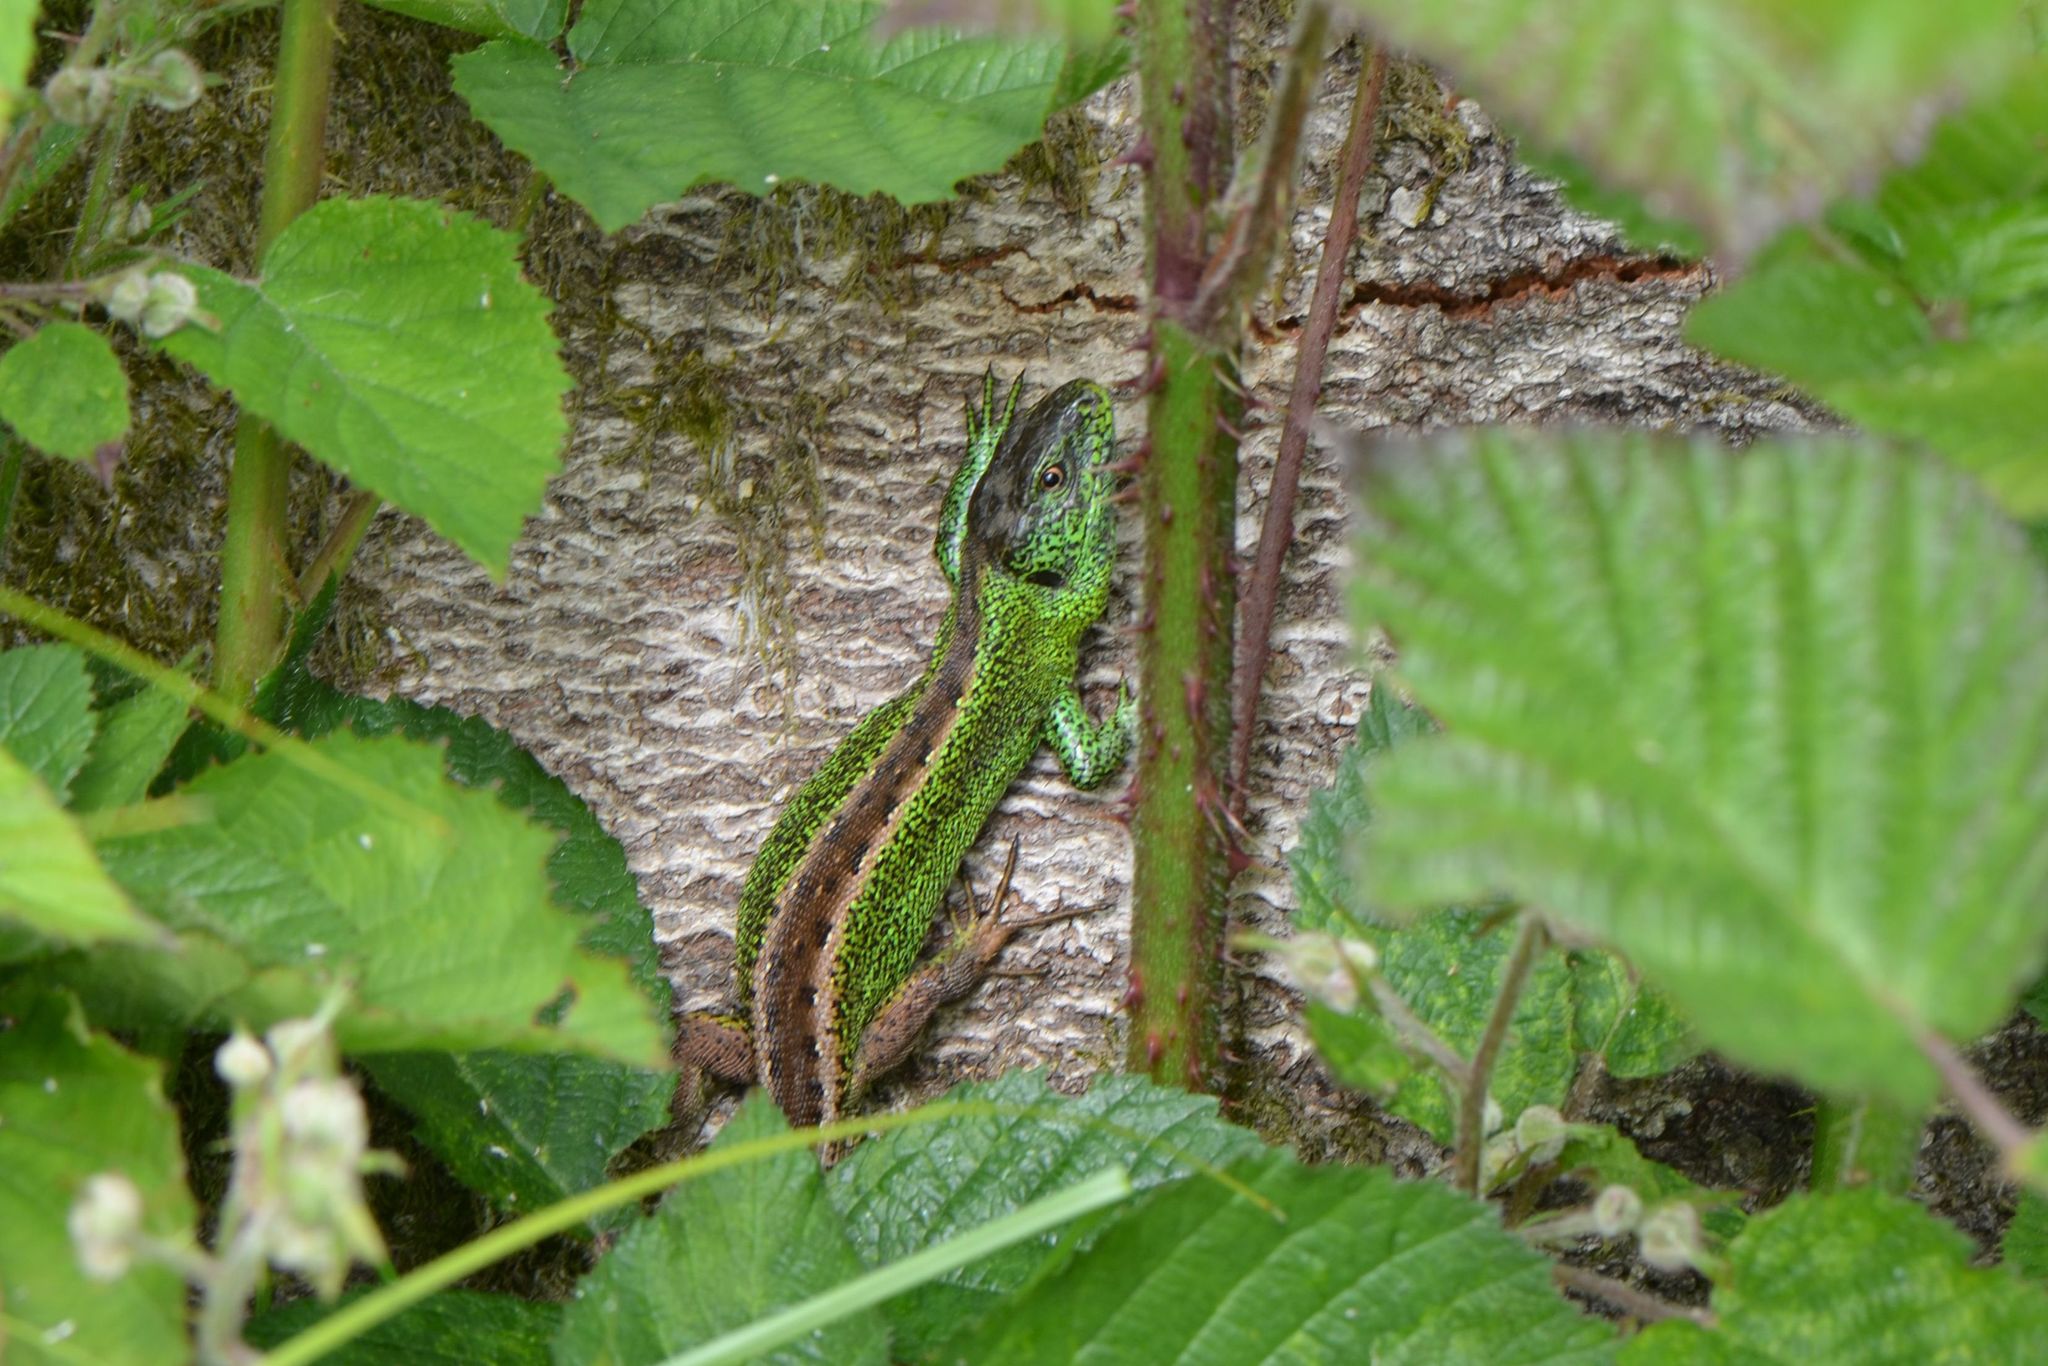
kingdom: Animalia
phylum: Chordata
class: Squamata
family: Lacertidae
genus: Lacerta
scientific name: Lacerta agilis
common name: Sand lizard
